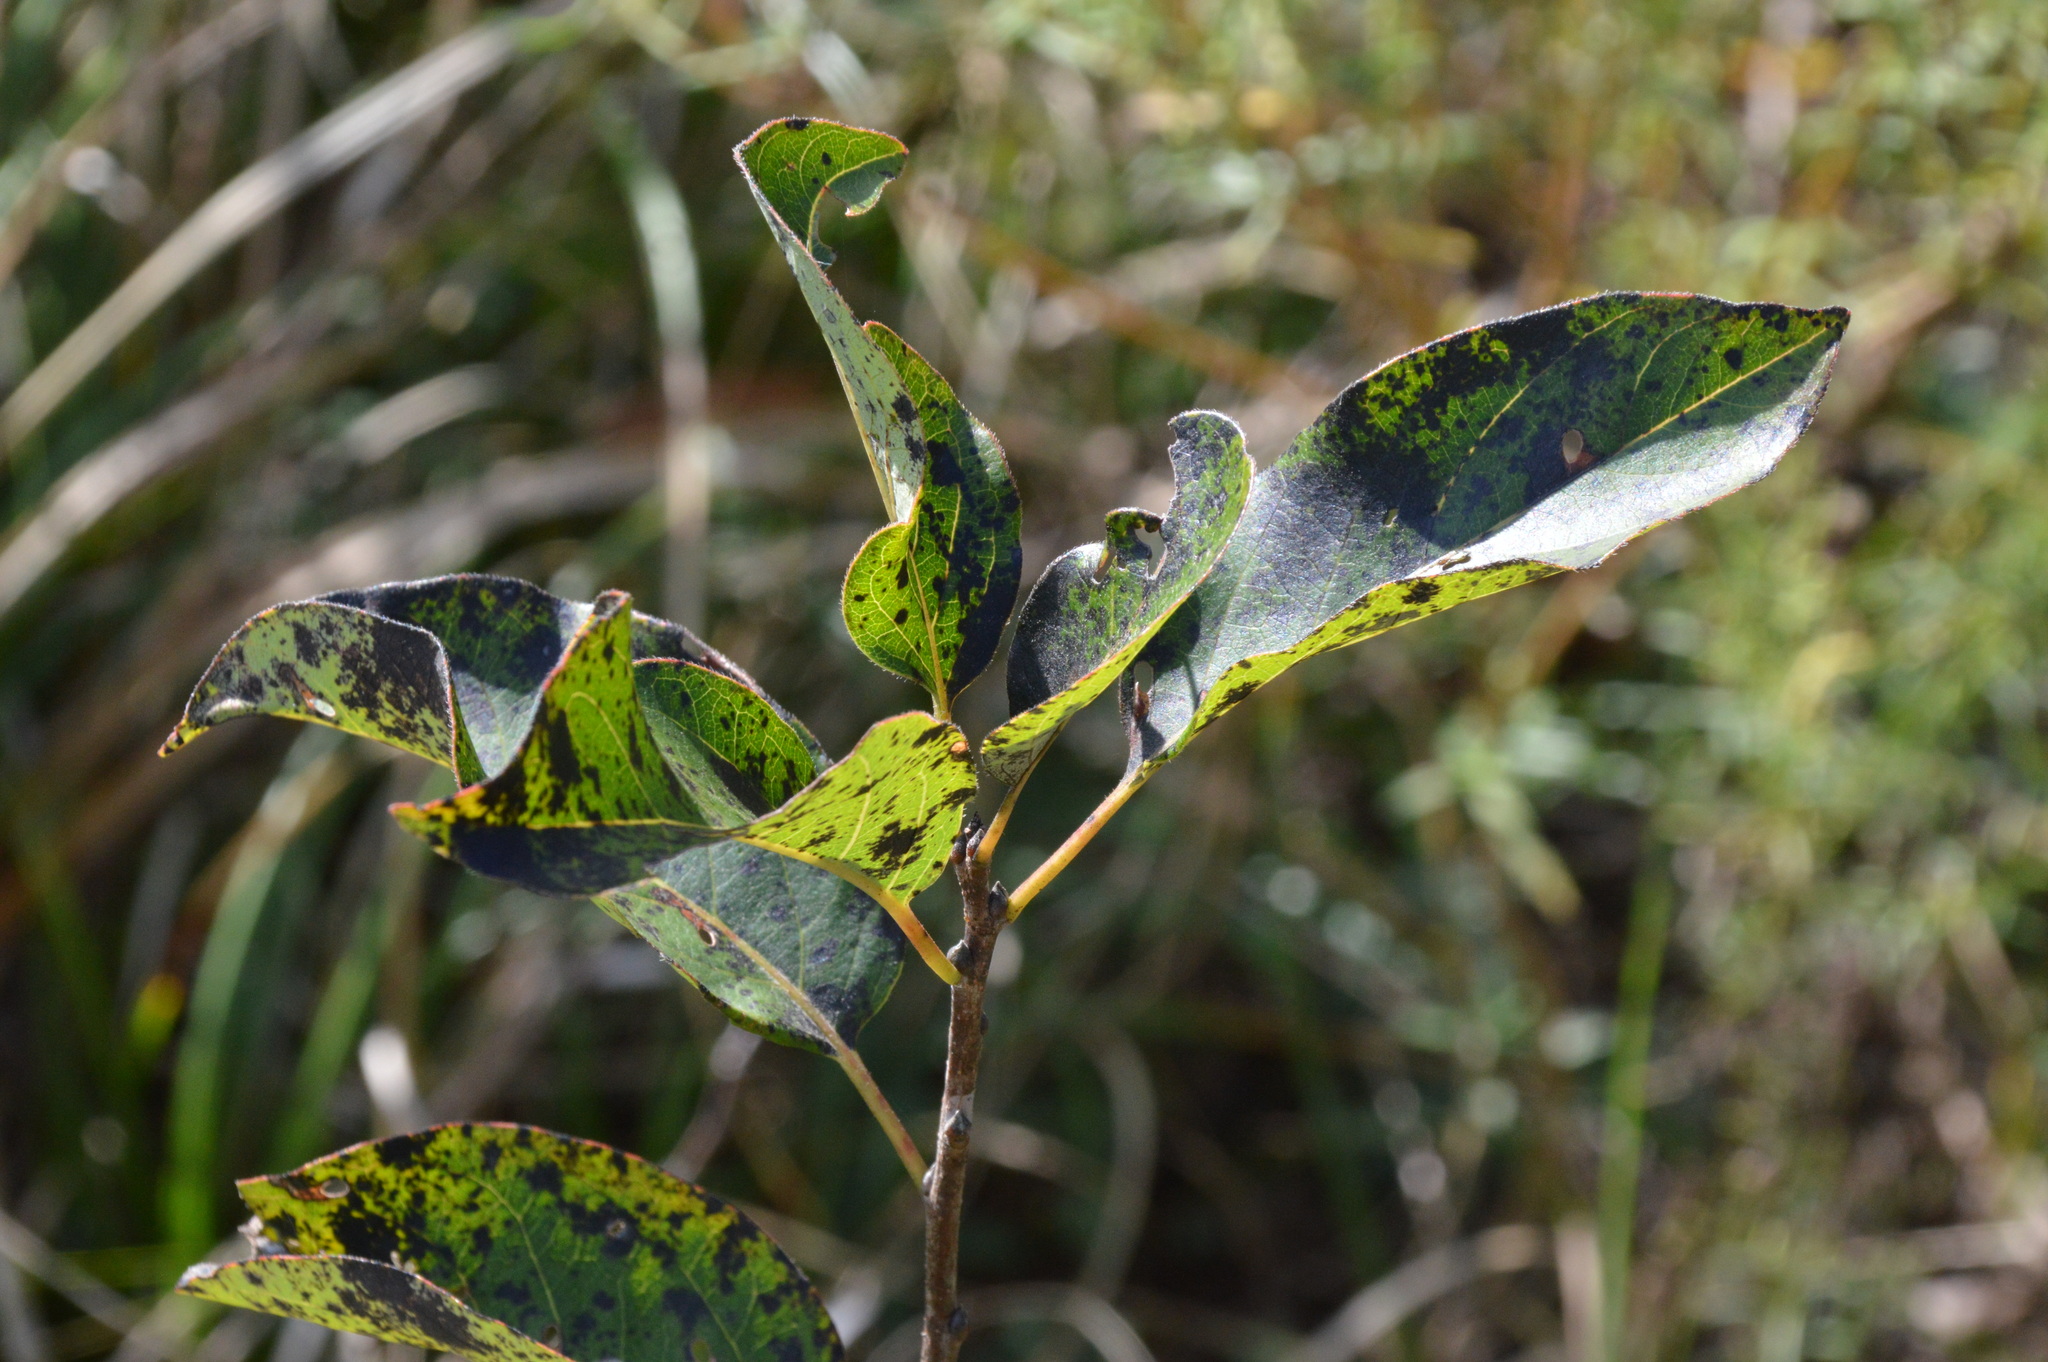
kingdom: Plantae
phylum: Tracheophyta
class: Magnoliopsida
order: Ericales
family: Ebenaceae
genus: Diospyros
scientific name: Diospyros virginiana
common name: Persimmon
